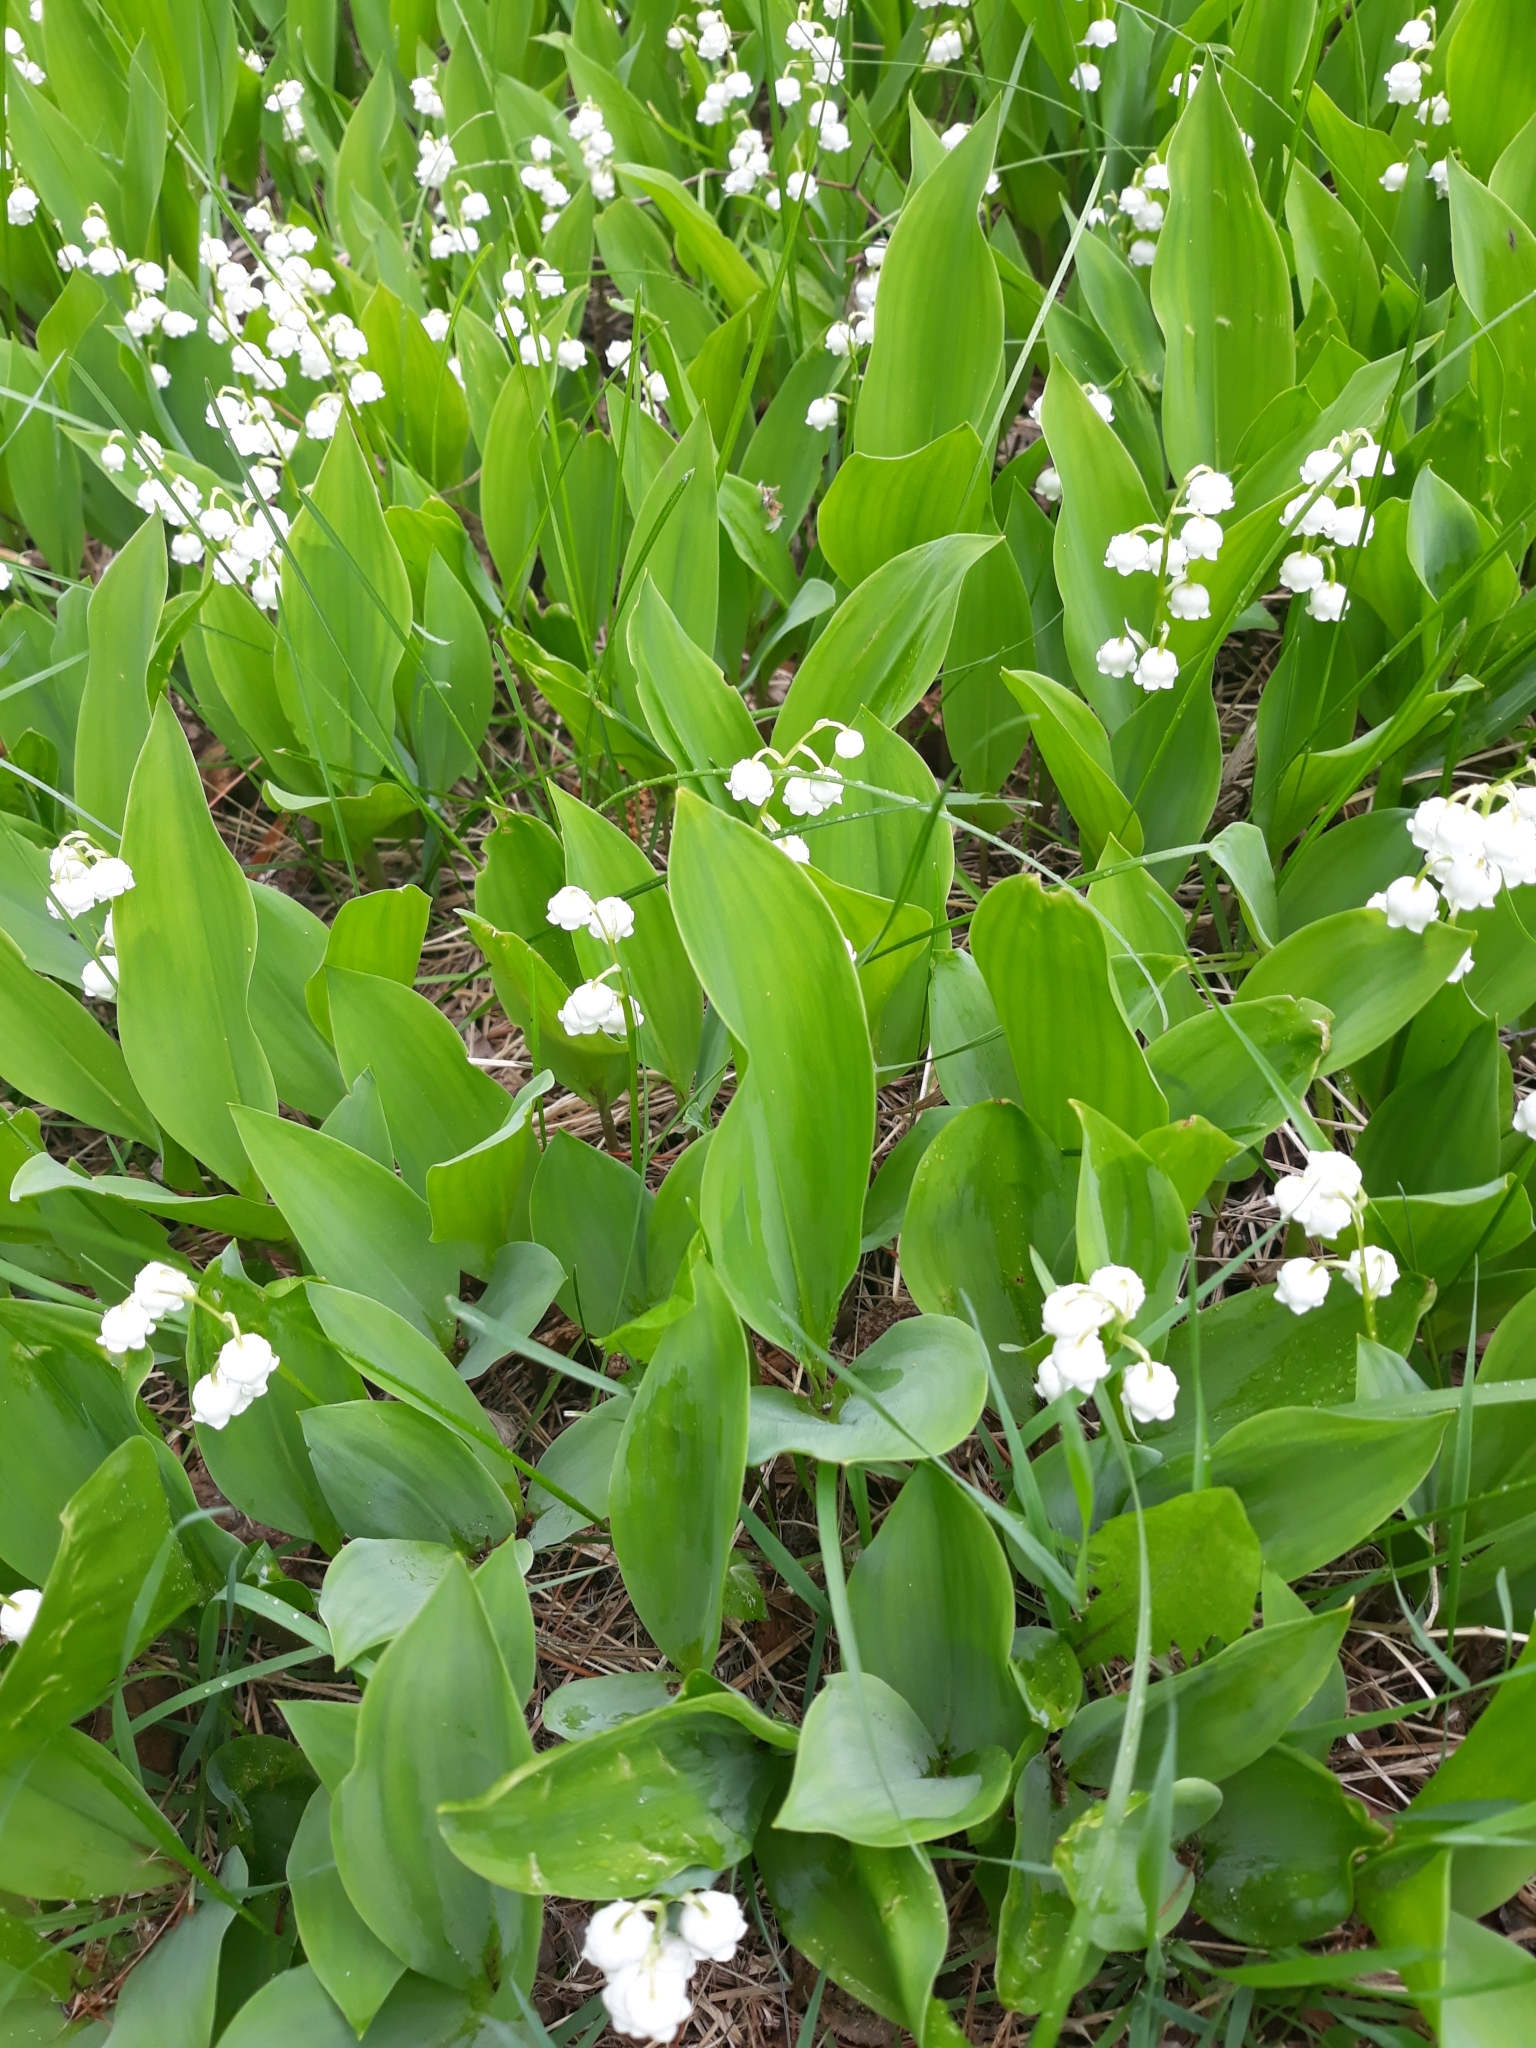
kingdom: Plantae
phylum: Tracheophyta
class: Liliopsida
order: Asparagales
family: Asparagaceae
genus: Convallaria
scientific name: Convallaria majalis
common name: Lily-of-the-valley
